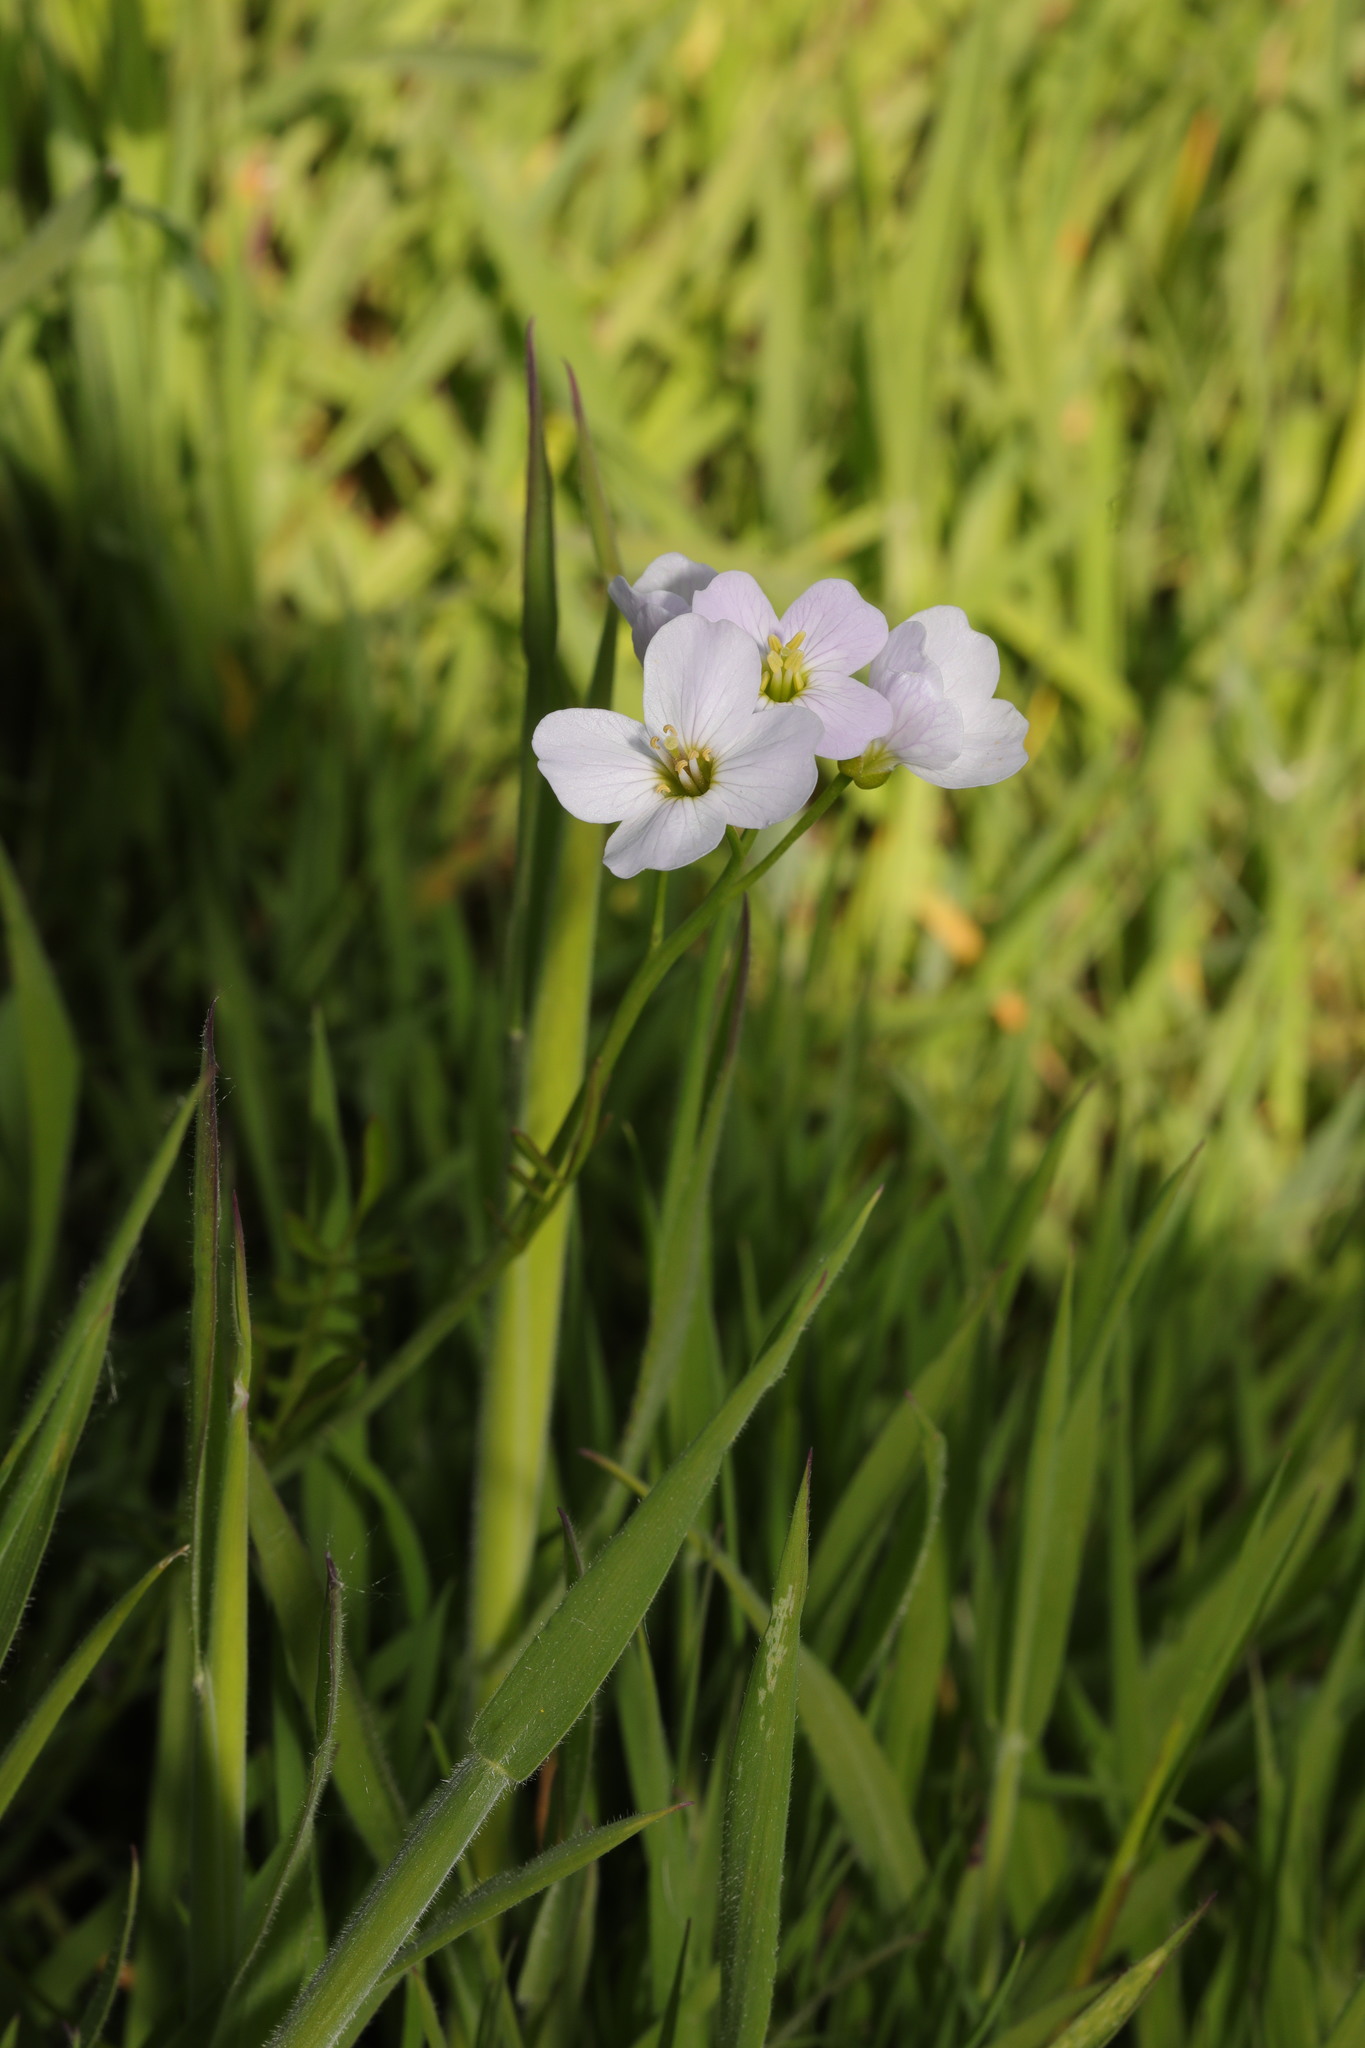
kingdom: Plantae
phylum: Tracheophyta
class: Magnoliopsida
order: Brassicales
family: Brassicaceae
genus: Cardamine
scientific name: Cardamine pratensis
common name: Cuckoo flower
